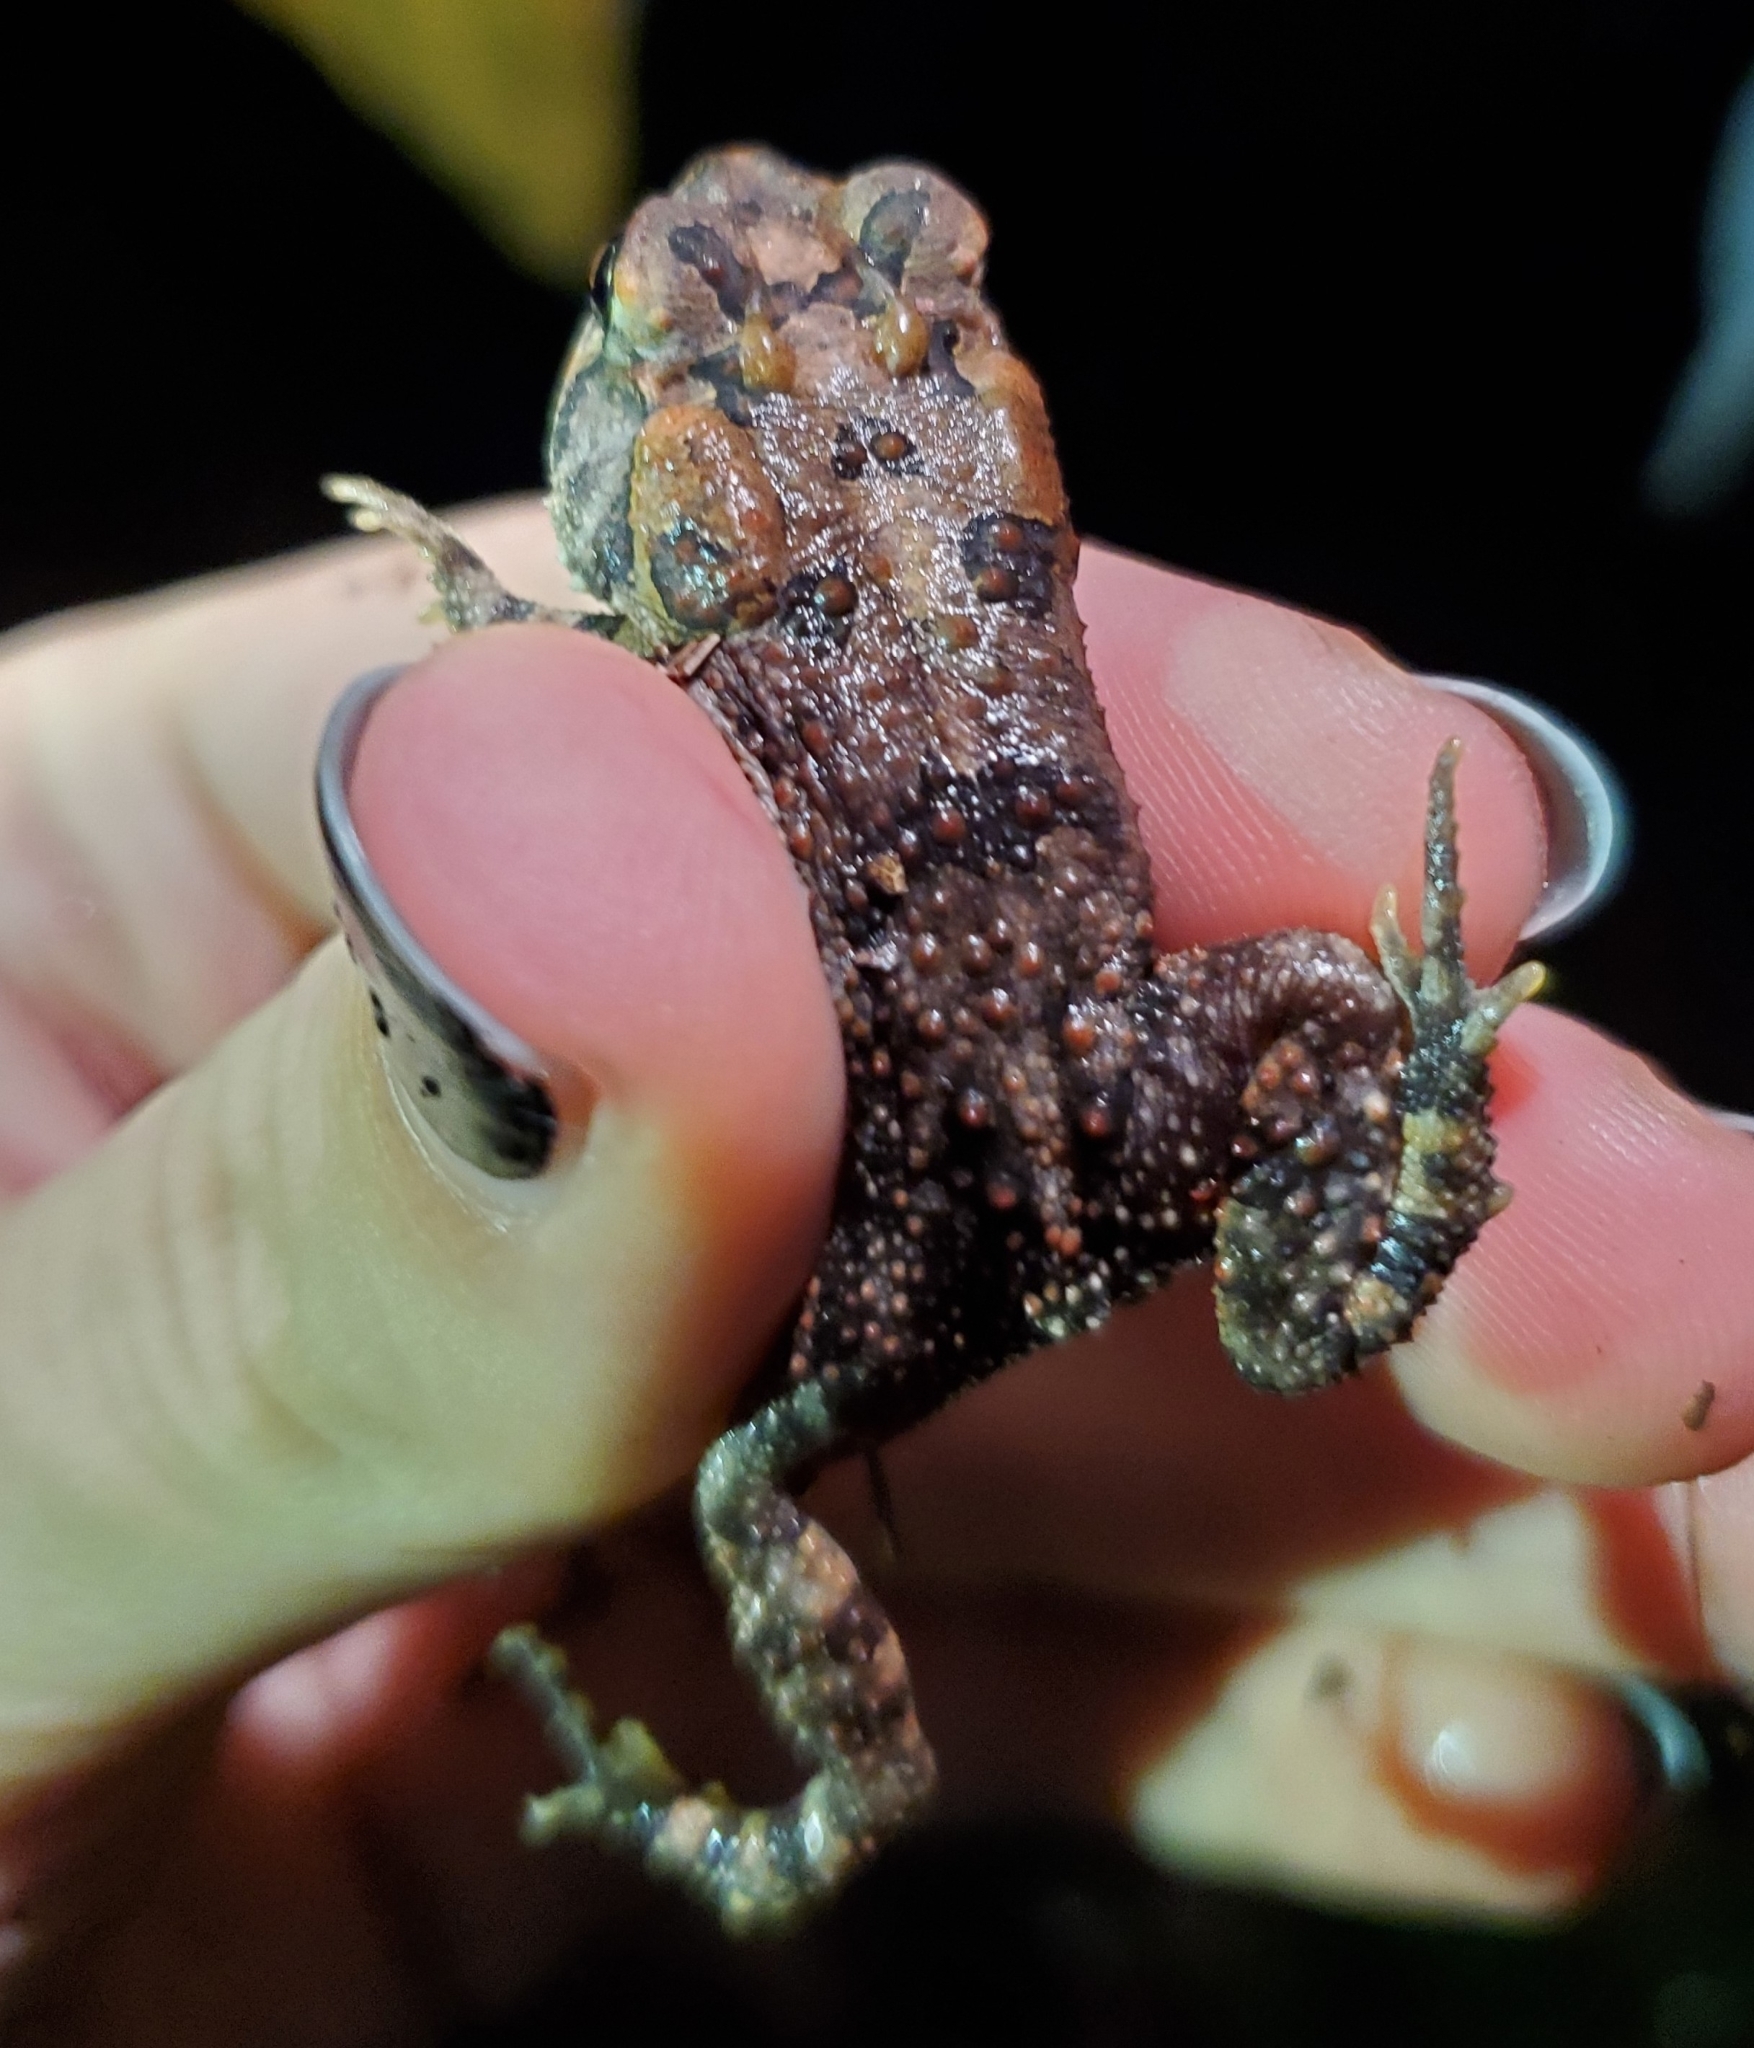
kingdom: Animalia
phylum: Chordata
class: Amphibia
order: Anura
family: Bufonidae
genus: Anaxyrus
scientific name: Anaxyrus terrestris
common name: Southern toad
